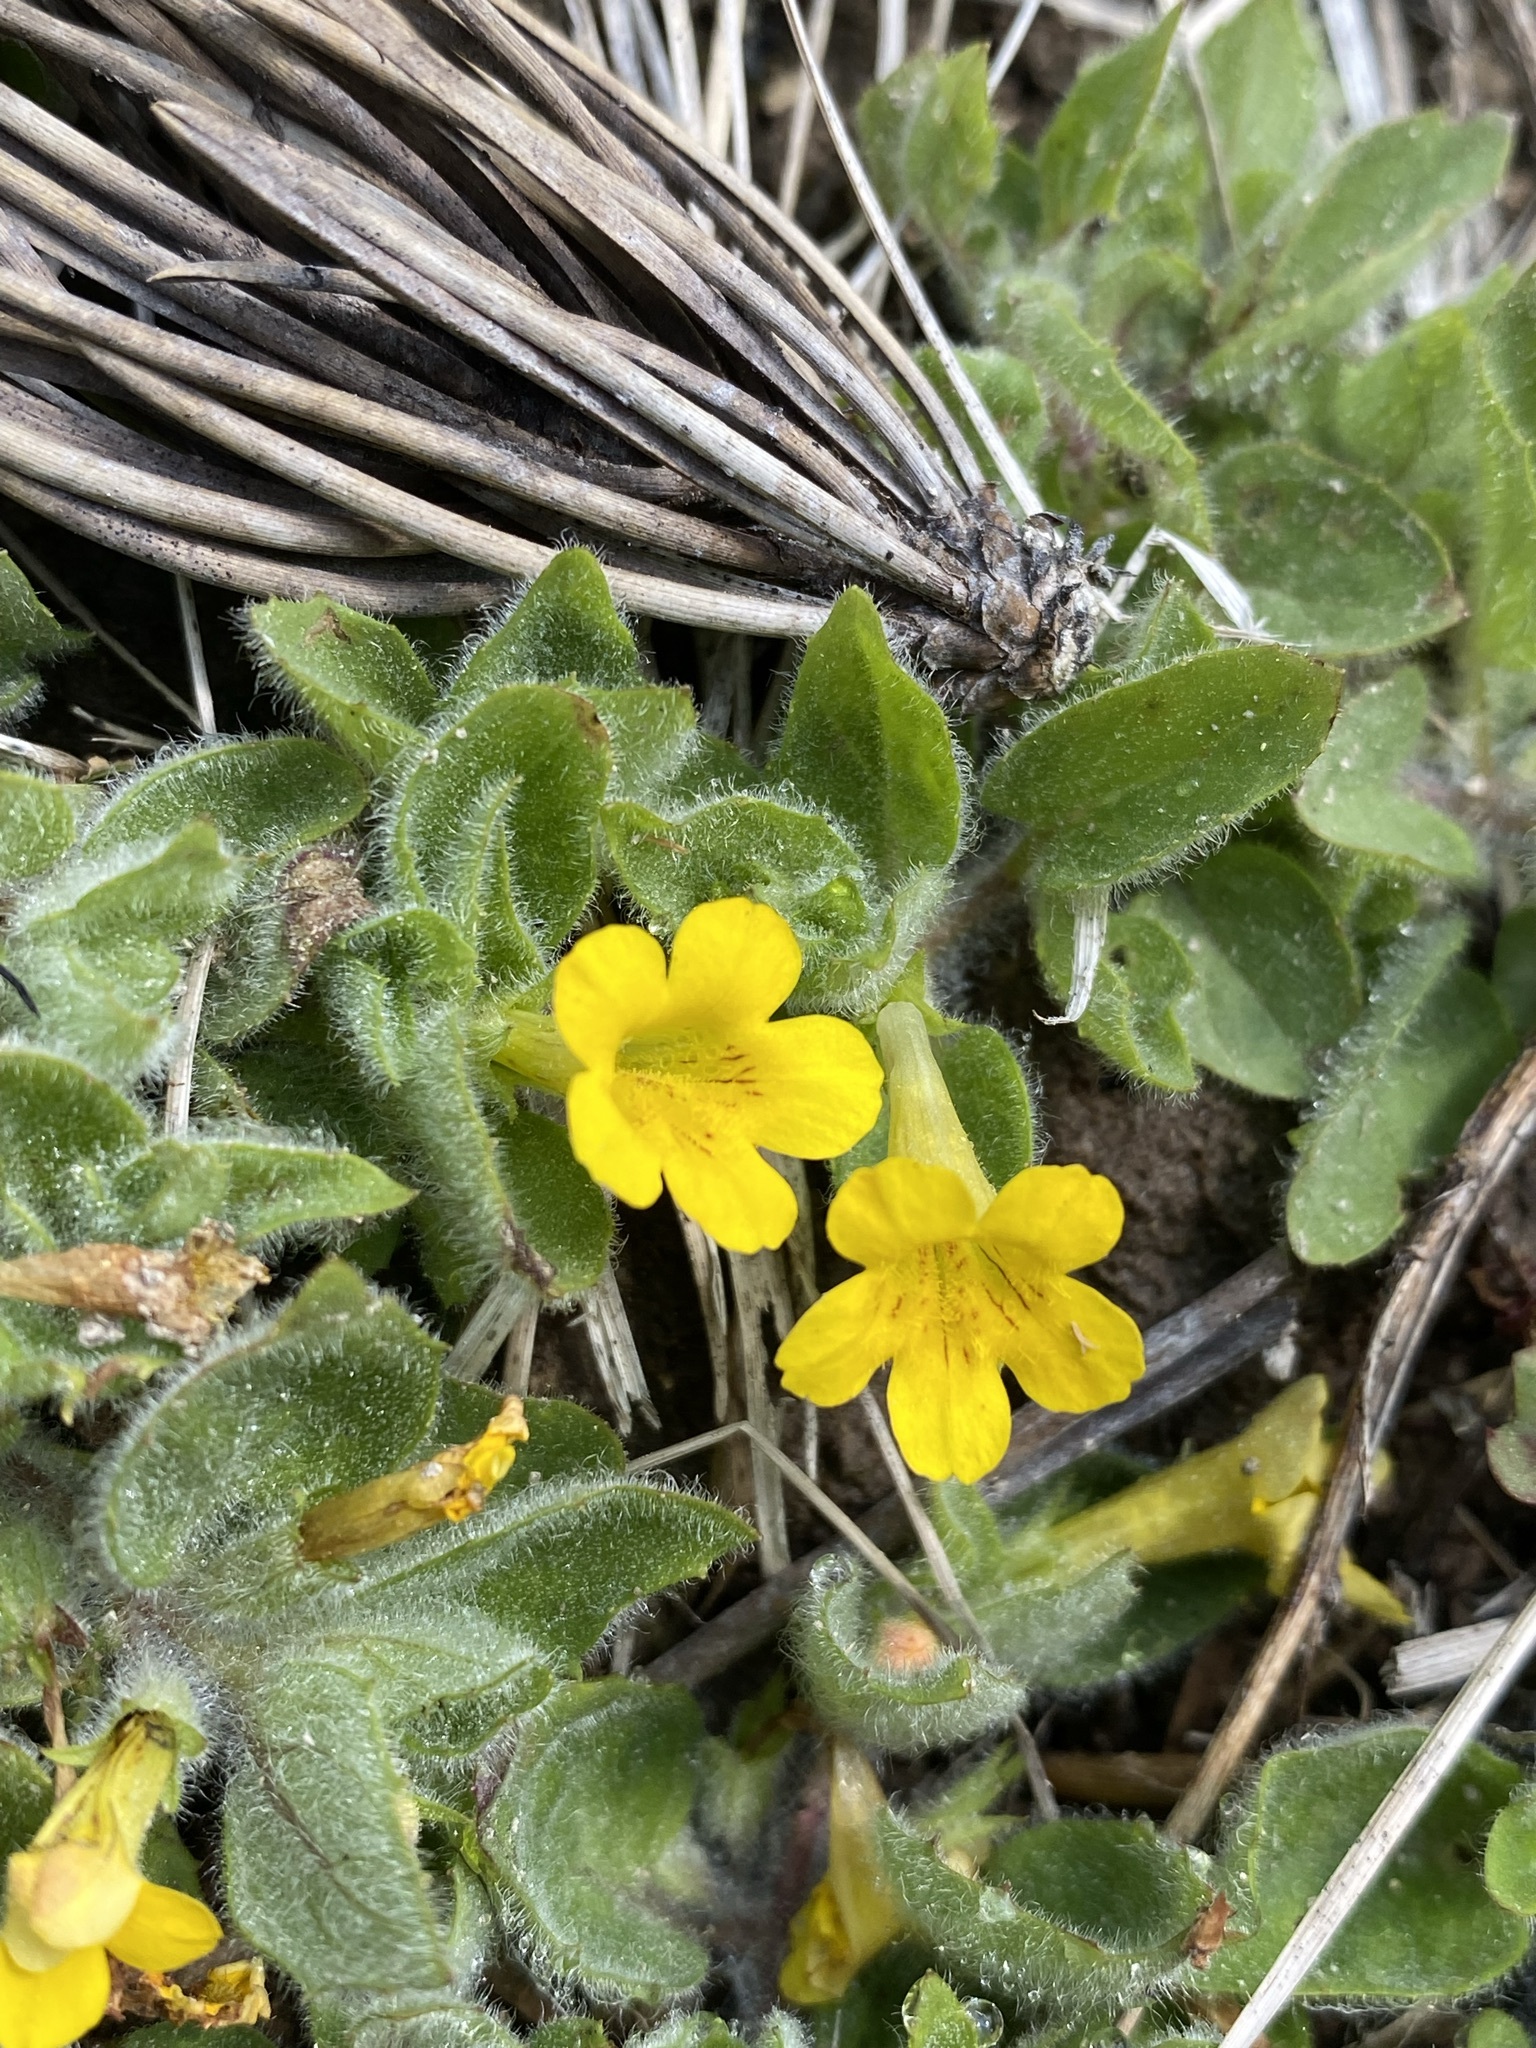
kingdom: Plantae
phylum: Tracheophyta
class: Magnoliopsida
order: Lamiales
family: Phrymaceae
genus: Erythranthe
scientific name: Erythranthe moschata
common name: Muskflower
